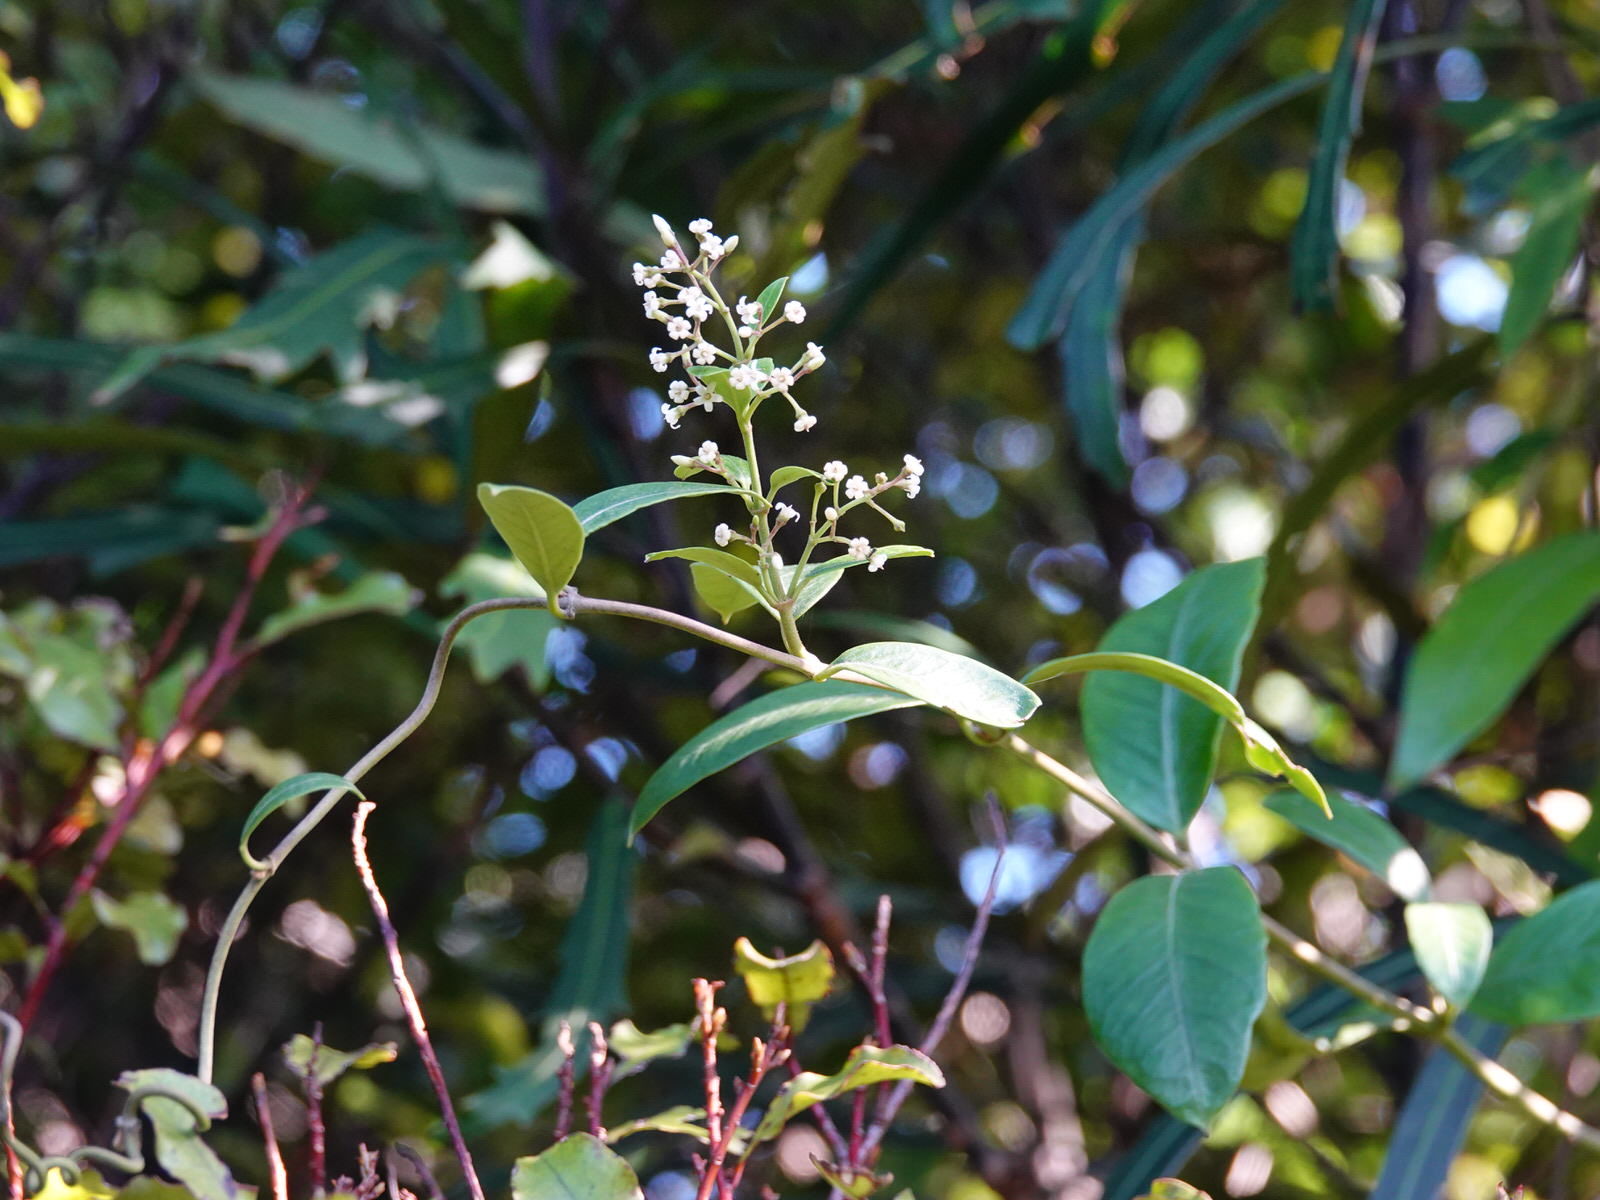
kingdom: Plantae
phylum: Tracheophyta
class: Magnoliopsida
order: Gentianales
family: Apocynaceae
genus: Parsonsia
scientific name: Parsonsia heterophylla
